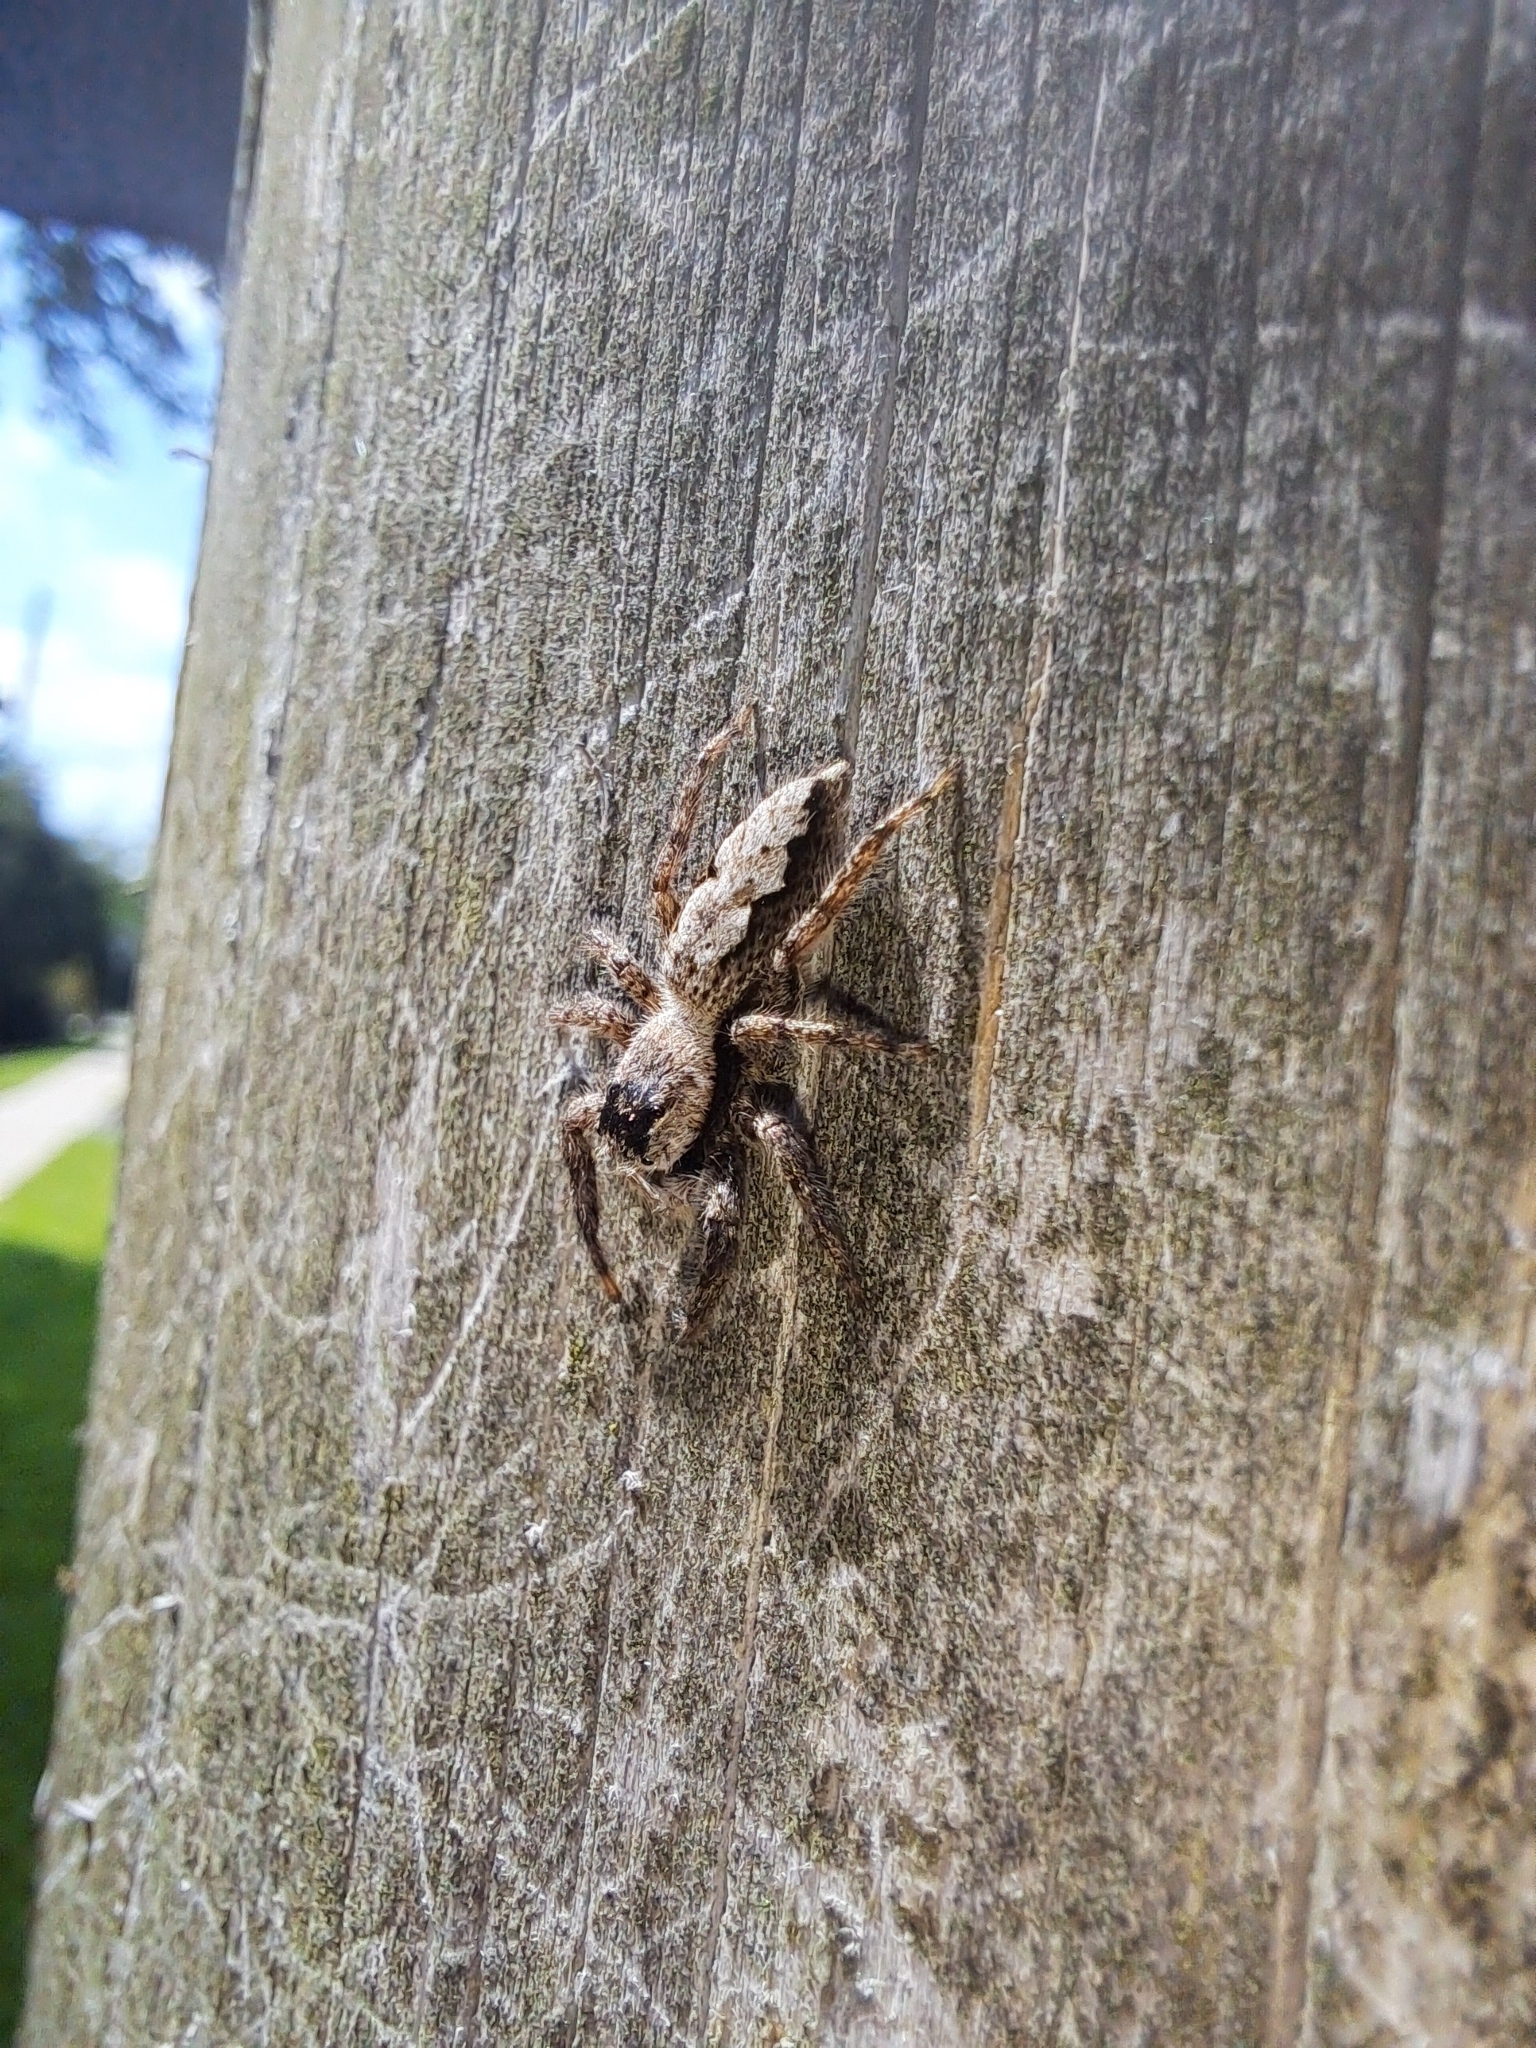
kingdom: Animalia
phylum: Arthropoda
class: Arachnida
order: Araneae
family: Salticidae
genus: Platycryptus
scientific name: Platycryptus undatus
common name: Tan jumping spider
